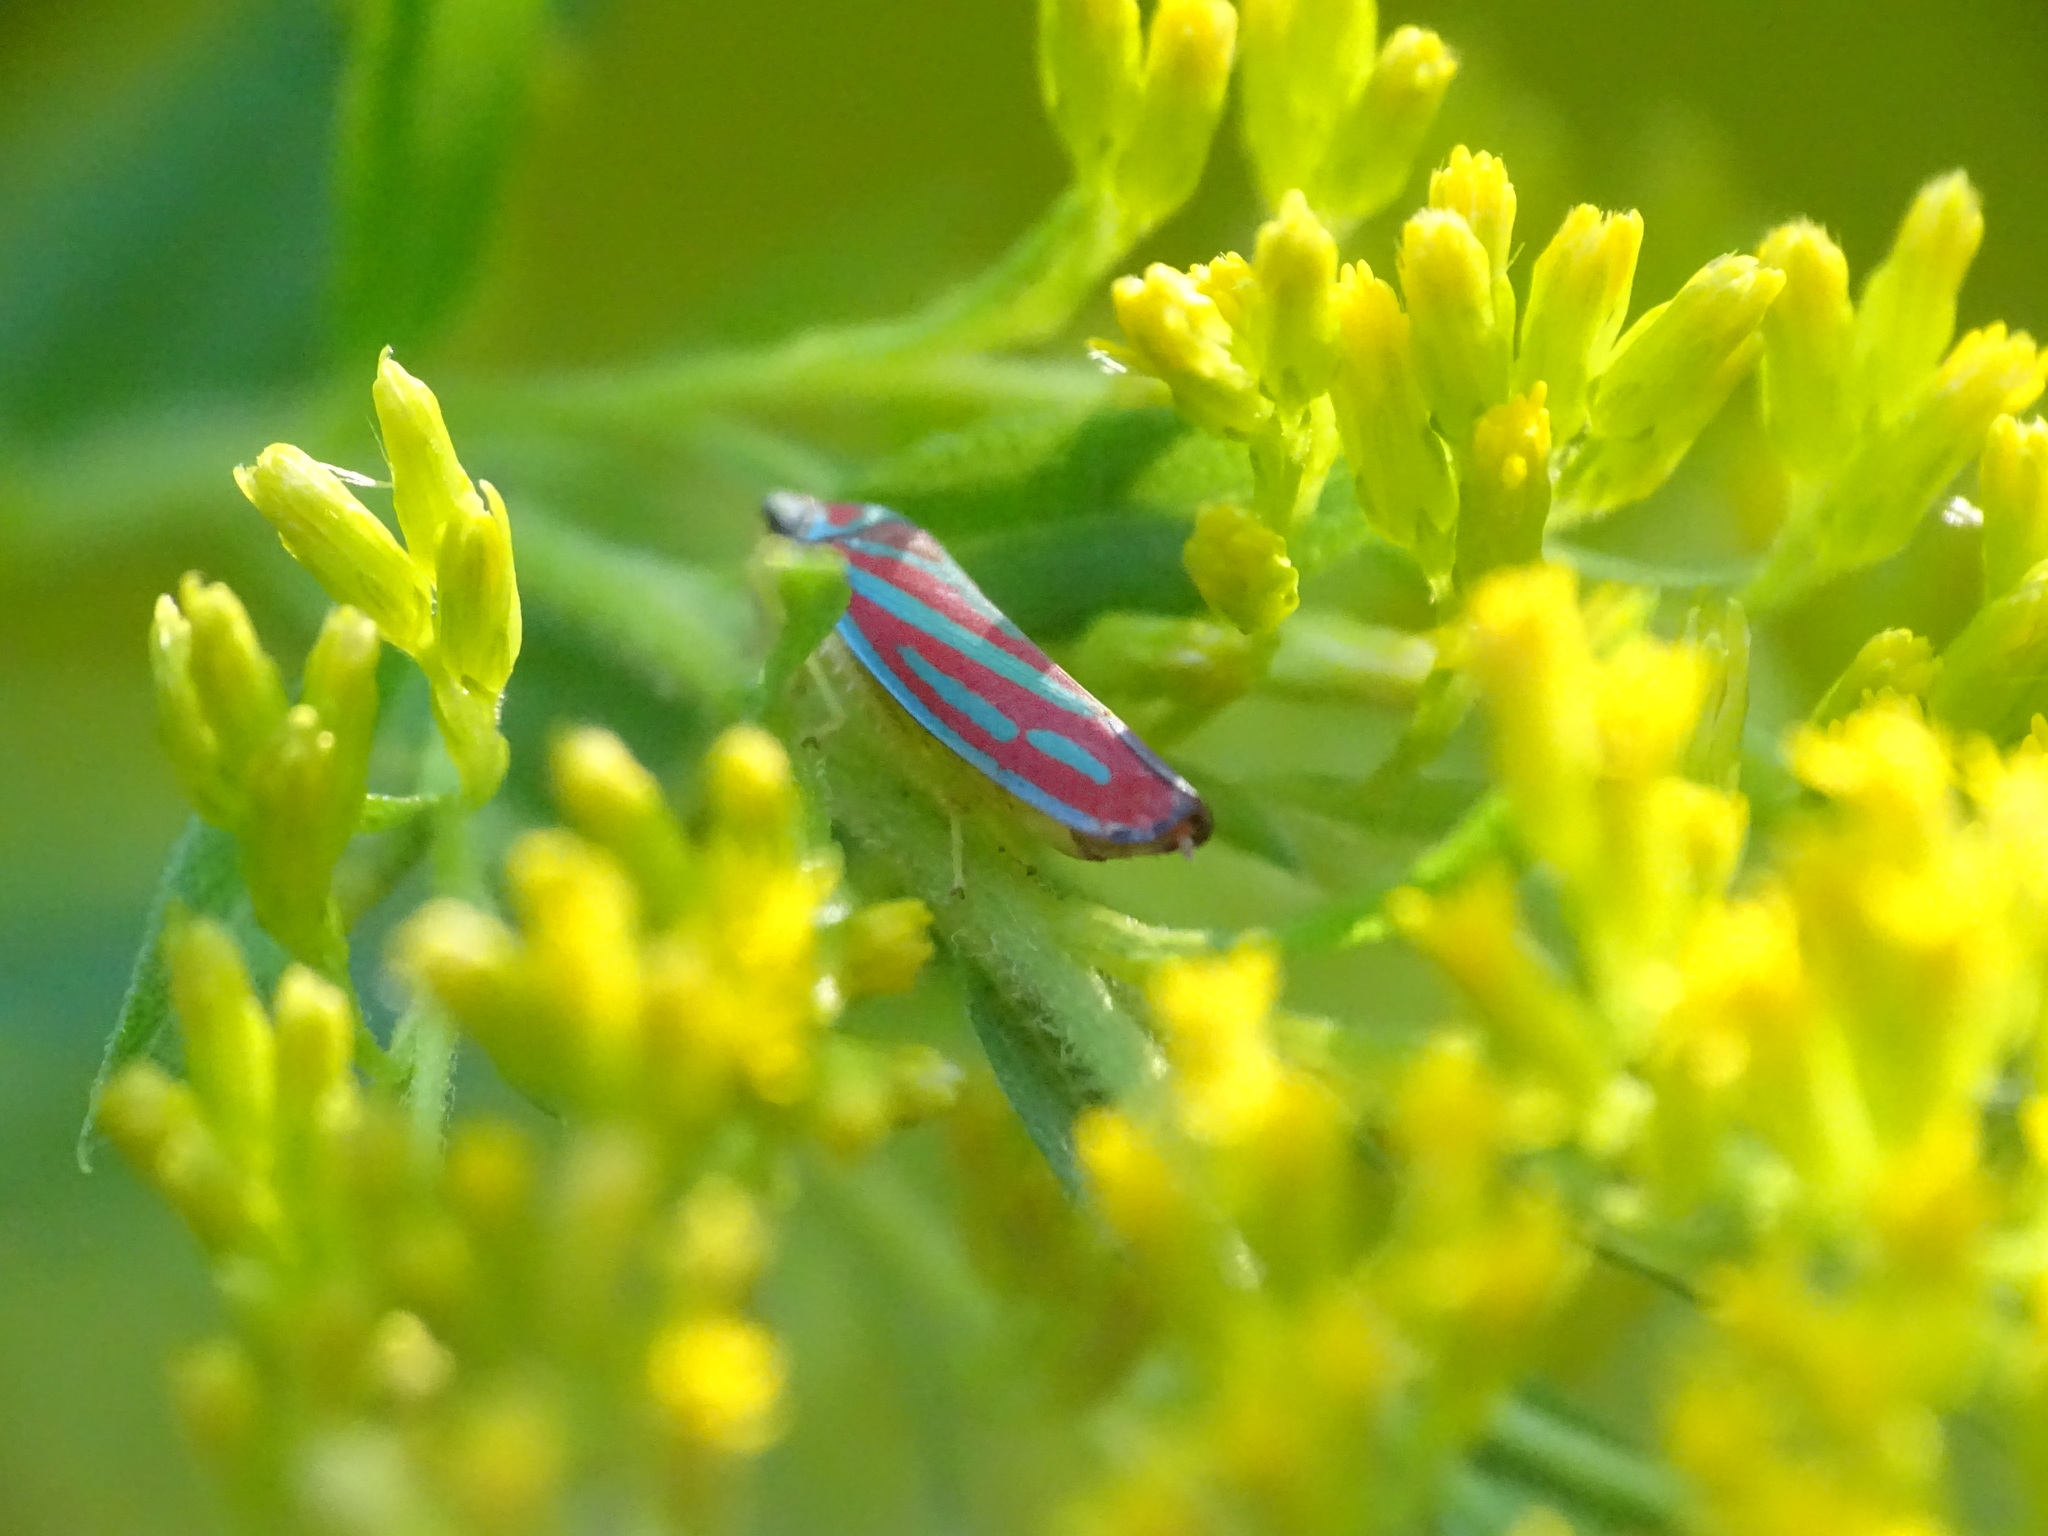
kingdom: Animalia
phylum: Arthropoda
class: Insecta
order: Hemiptera
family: Cicadellidae
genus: Graphocephala
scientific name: Graphocephala coccinea
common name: Candy-striped leafhopper
